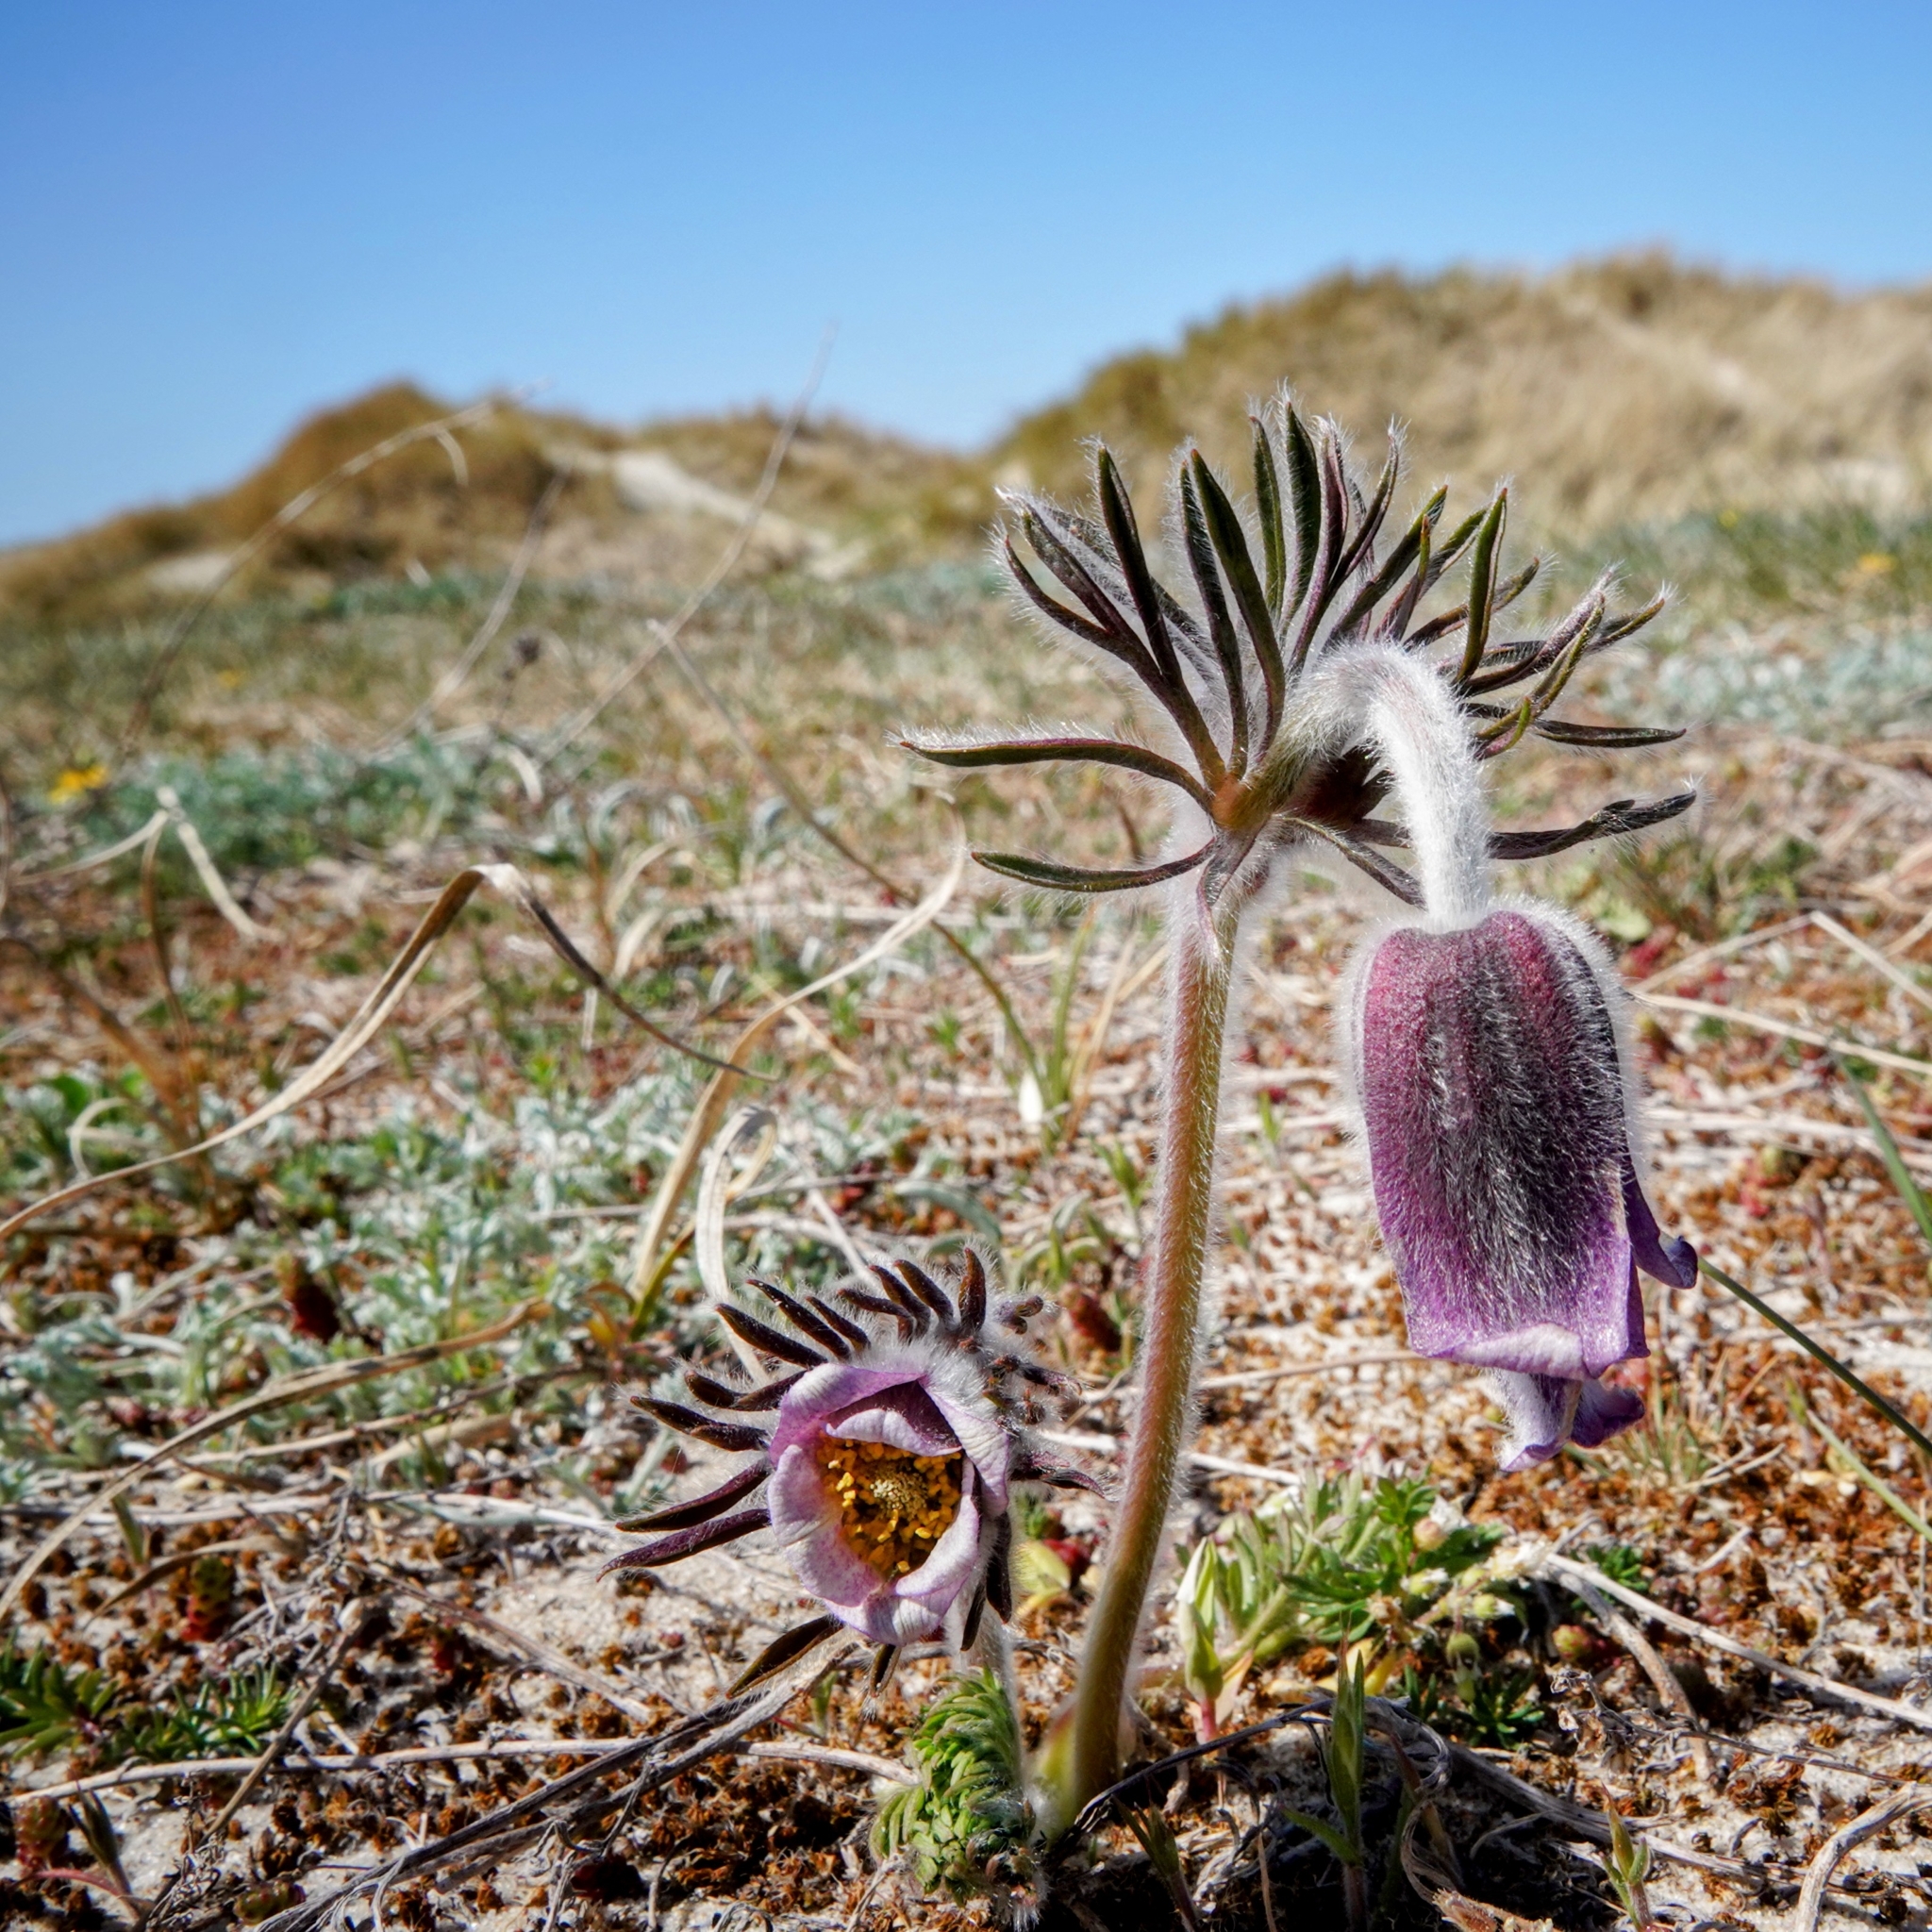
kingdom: Plantae
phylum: Tracheophyta
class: Magnoliopsida
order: Ranunculales
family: Ranunculaceae
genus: Pulsatilla
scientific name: Pulsatilla pratensis
